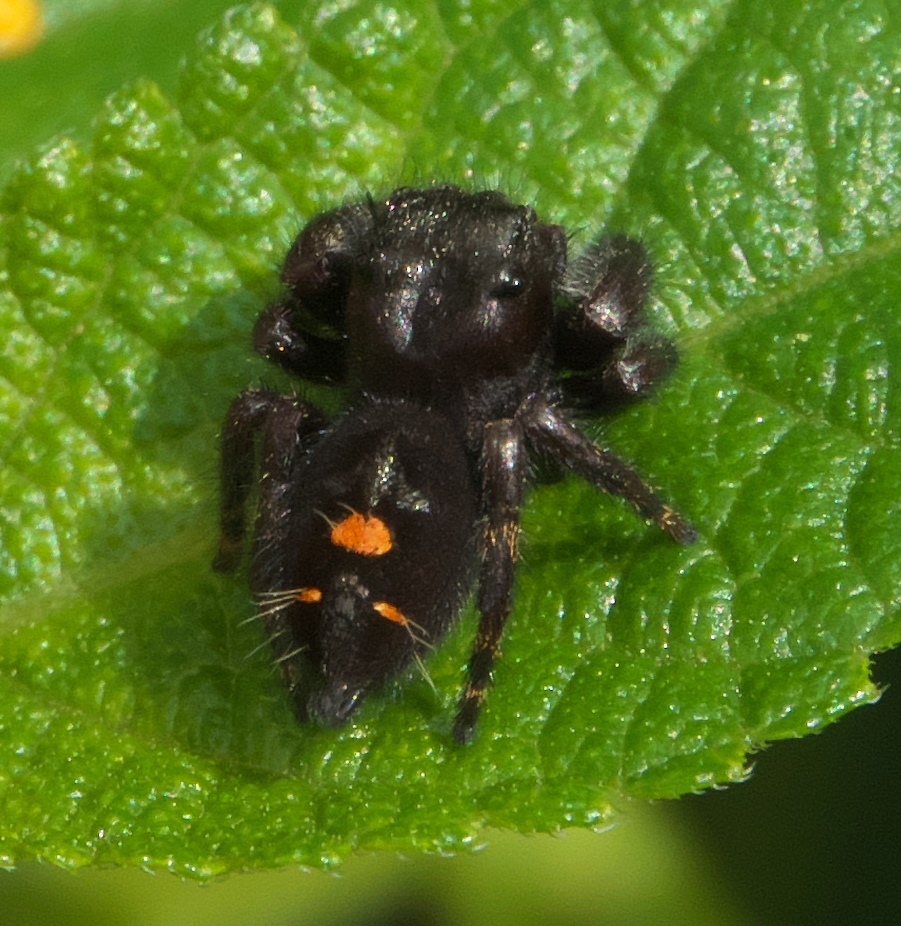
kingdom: Animalia
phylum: Arthropoda
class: Arachnida
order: Araneae
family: Salticidae
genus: Phidippus
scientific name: Phidippus audax
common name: Bold jumper
